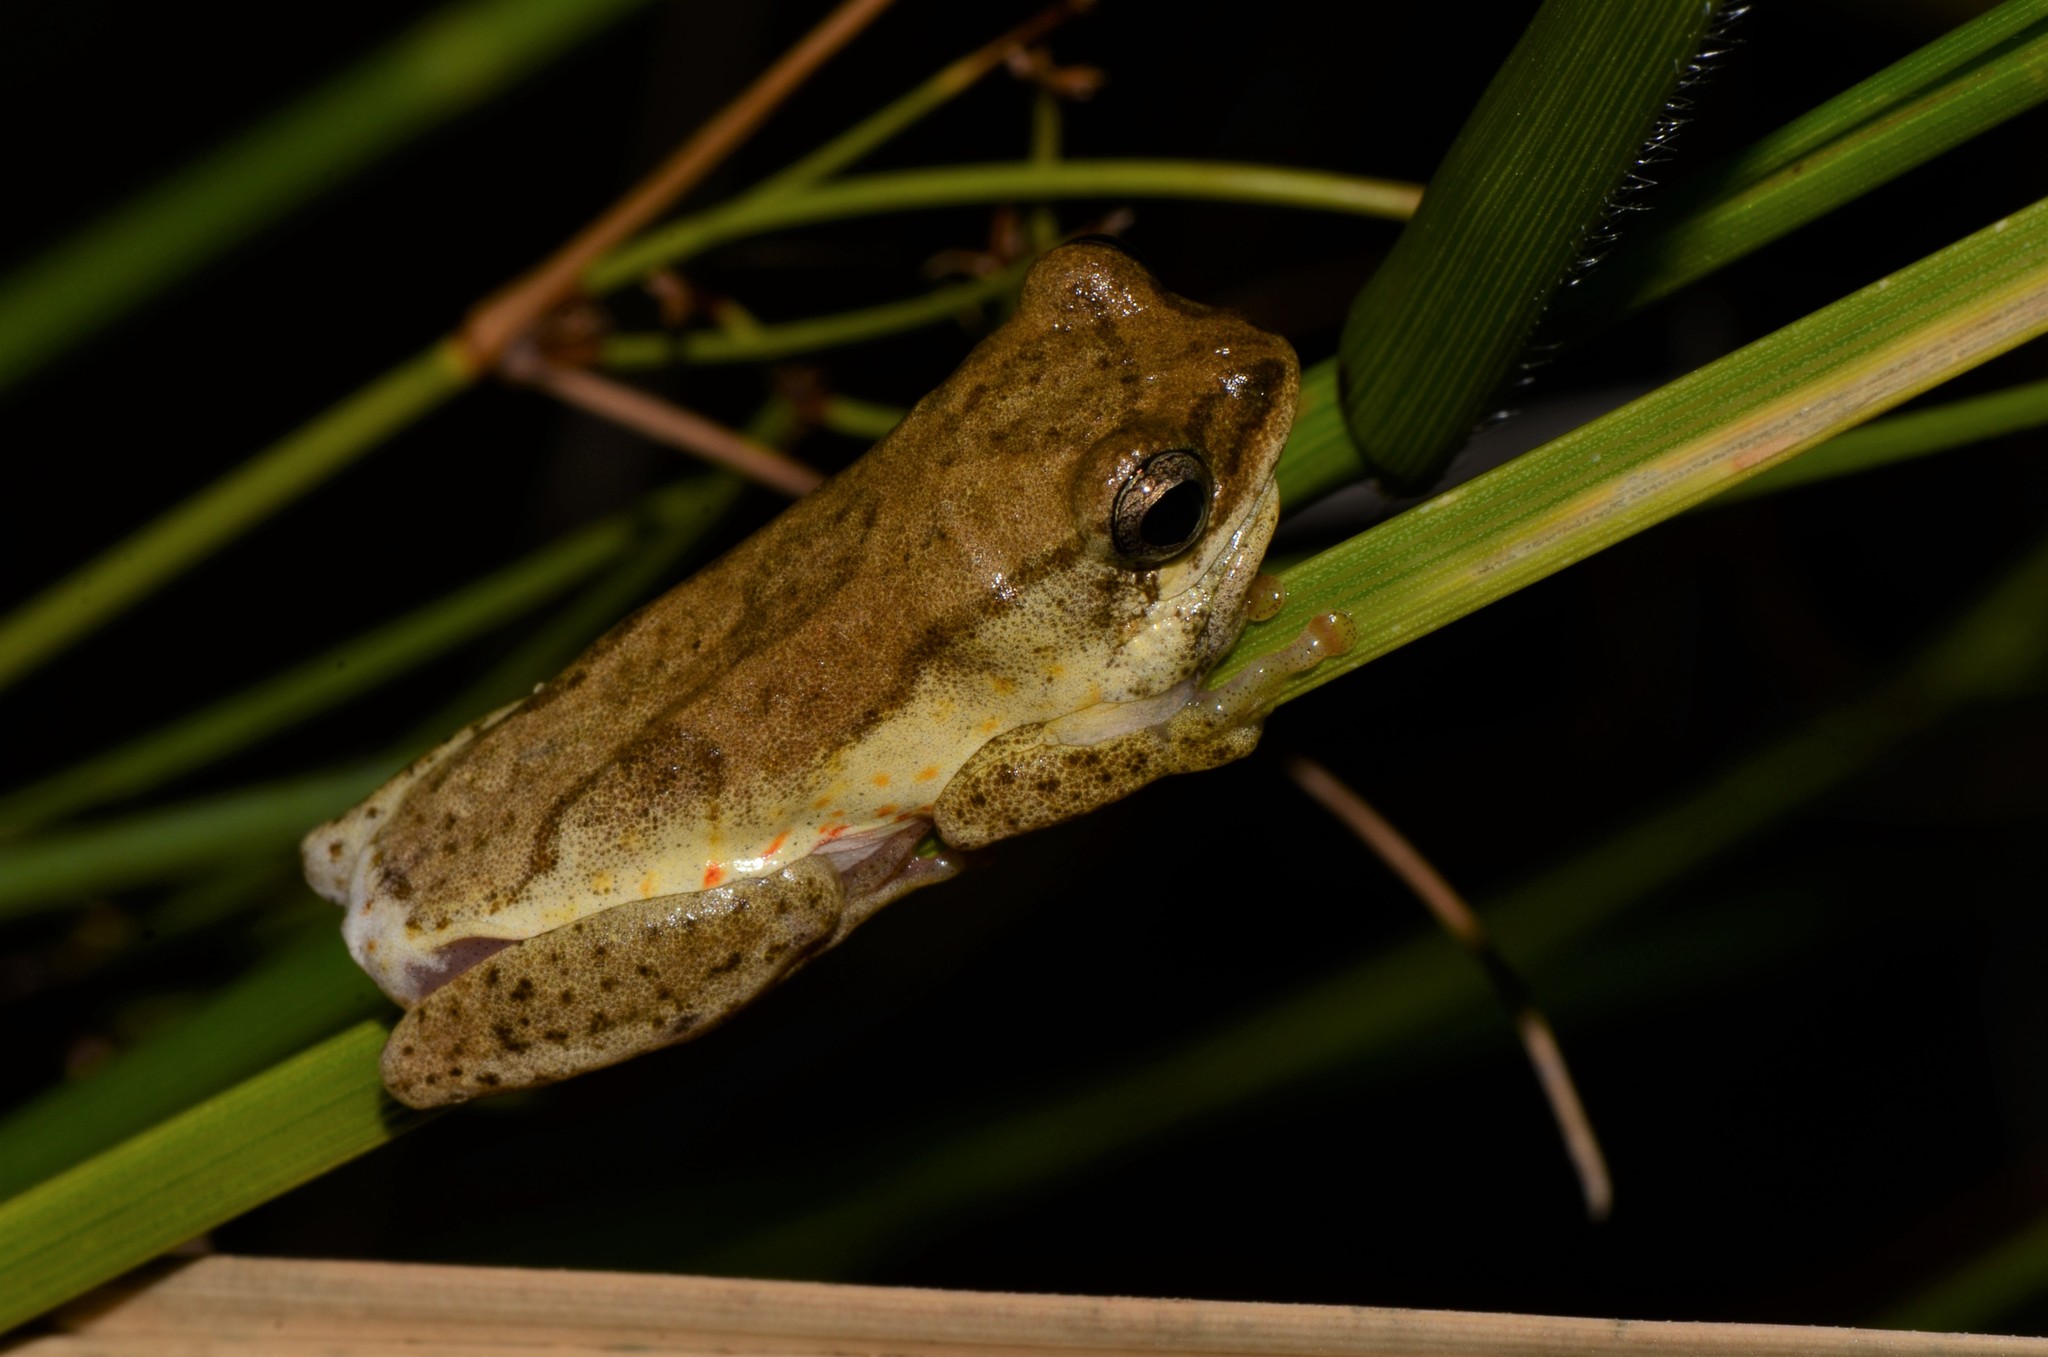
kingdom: Animalia
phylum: Chordata
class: Amphibia
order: Anura
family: Hyperoliidae
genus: Hyperolius
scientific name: Hyperolius marmoratus
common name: Painted reed frog
